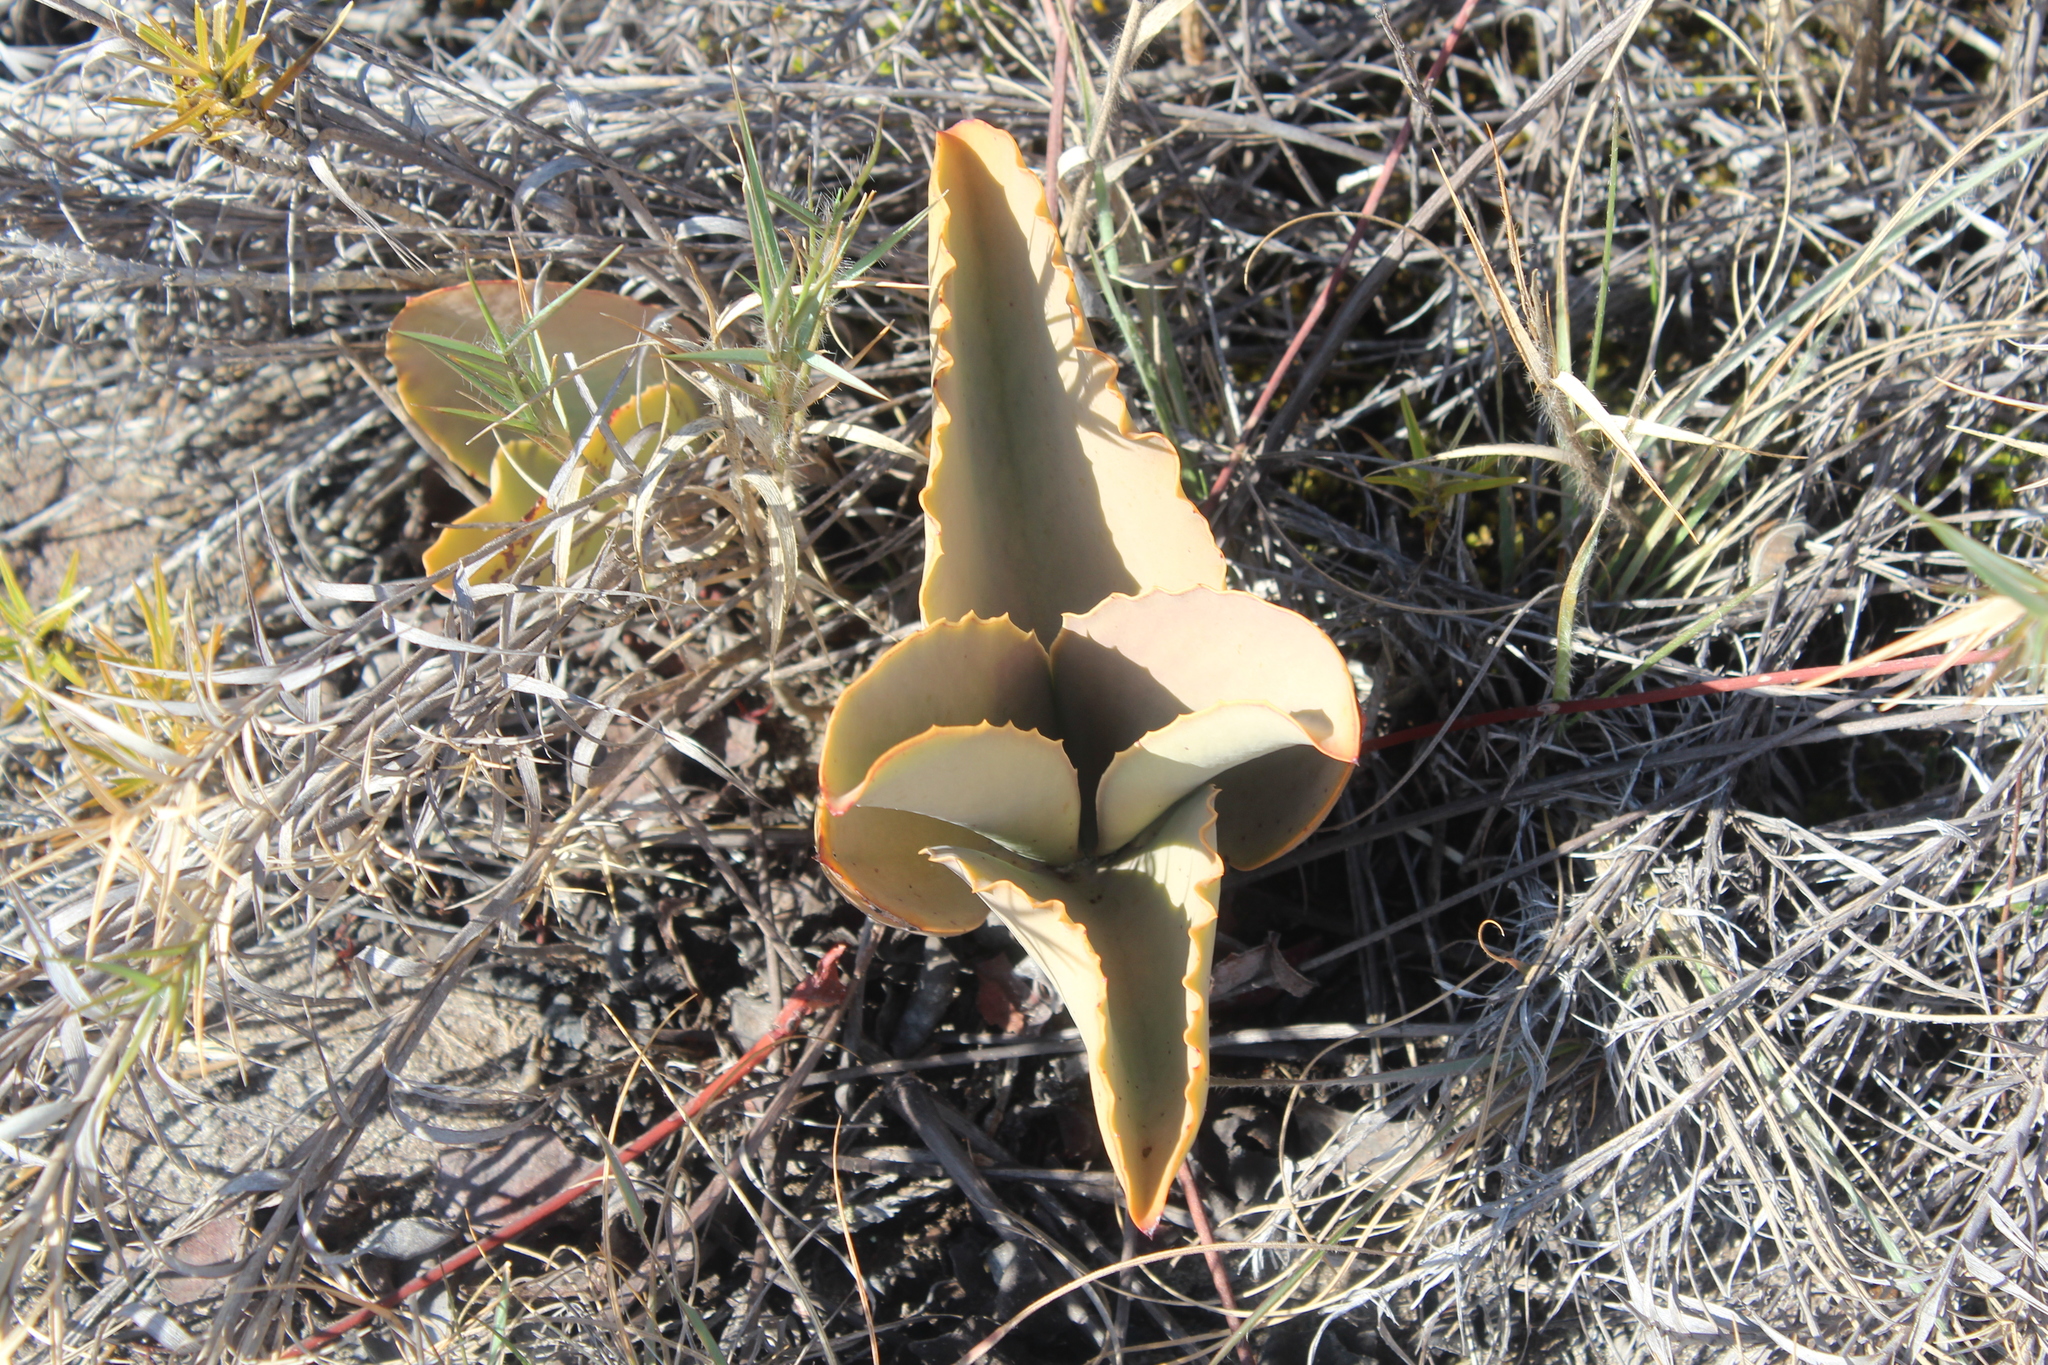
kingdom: Plantae
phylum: Tracheophyta
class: Magnoliopsida
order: Saxifragales
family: Crassulaceae
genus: Kalanchoe
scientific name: Kalanchoe synsepala
